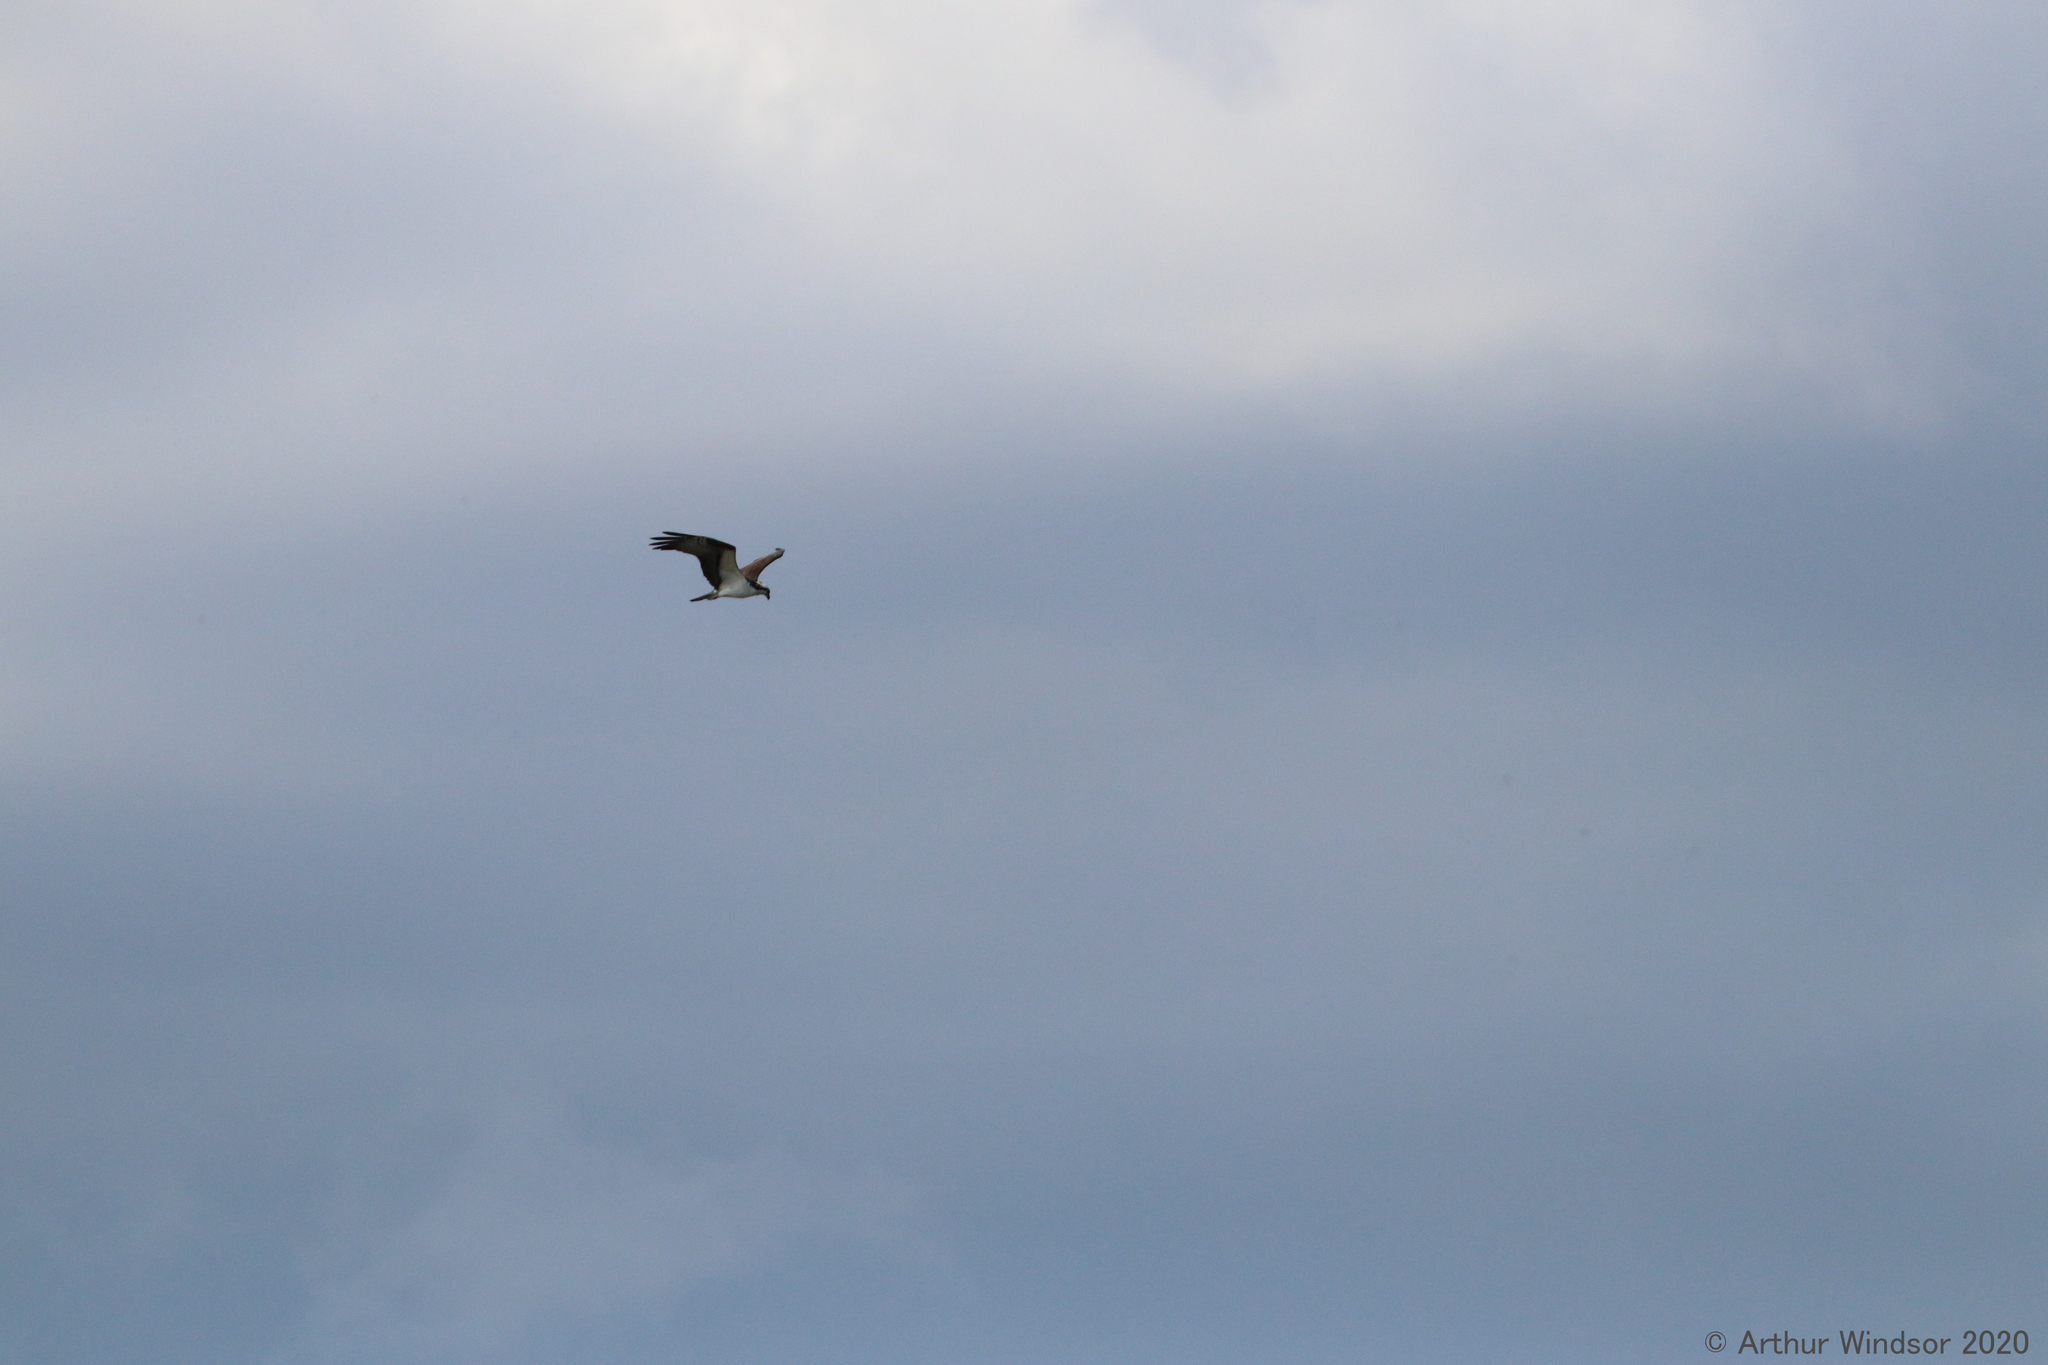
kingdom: Animalia
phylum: Chordata
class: Aves
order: Accipitriformes
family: Pandionidae
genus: Pandion
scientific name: Pandion haliaetus
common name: Osprey
